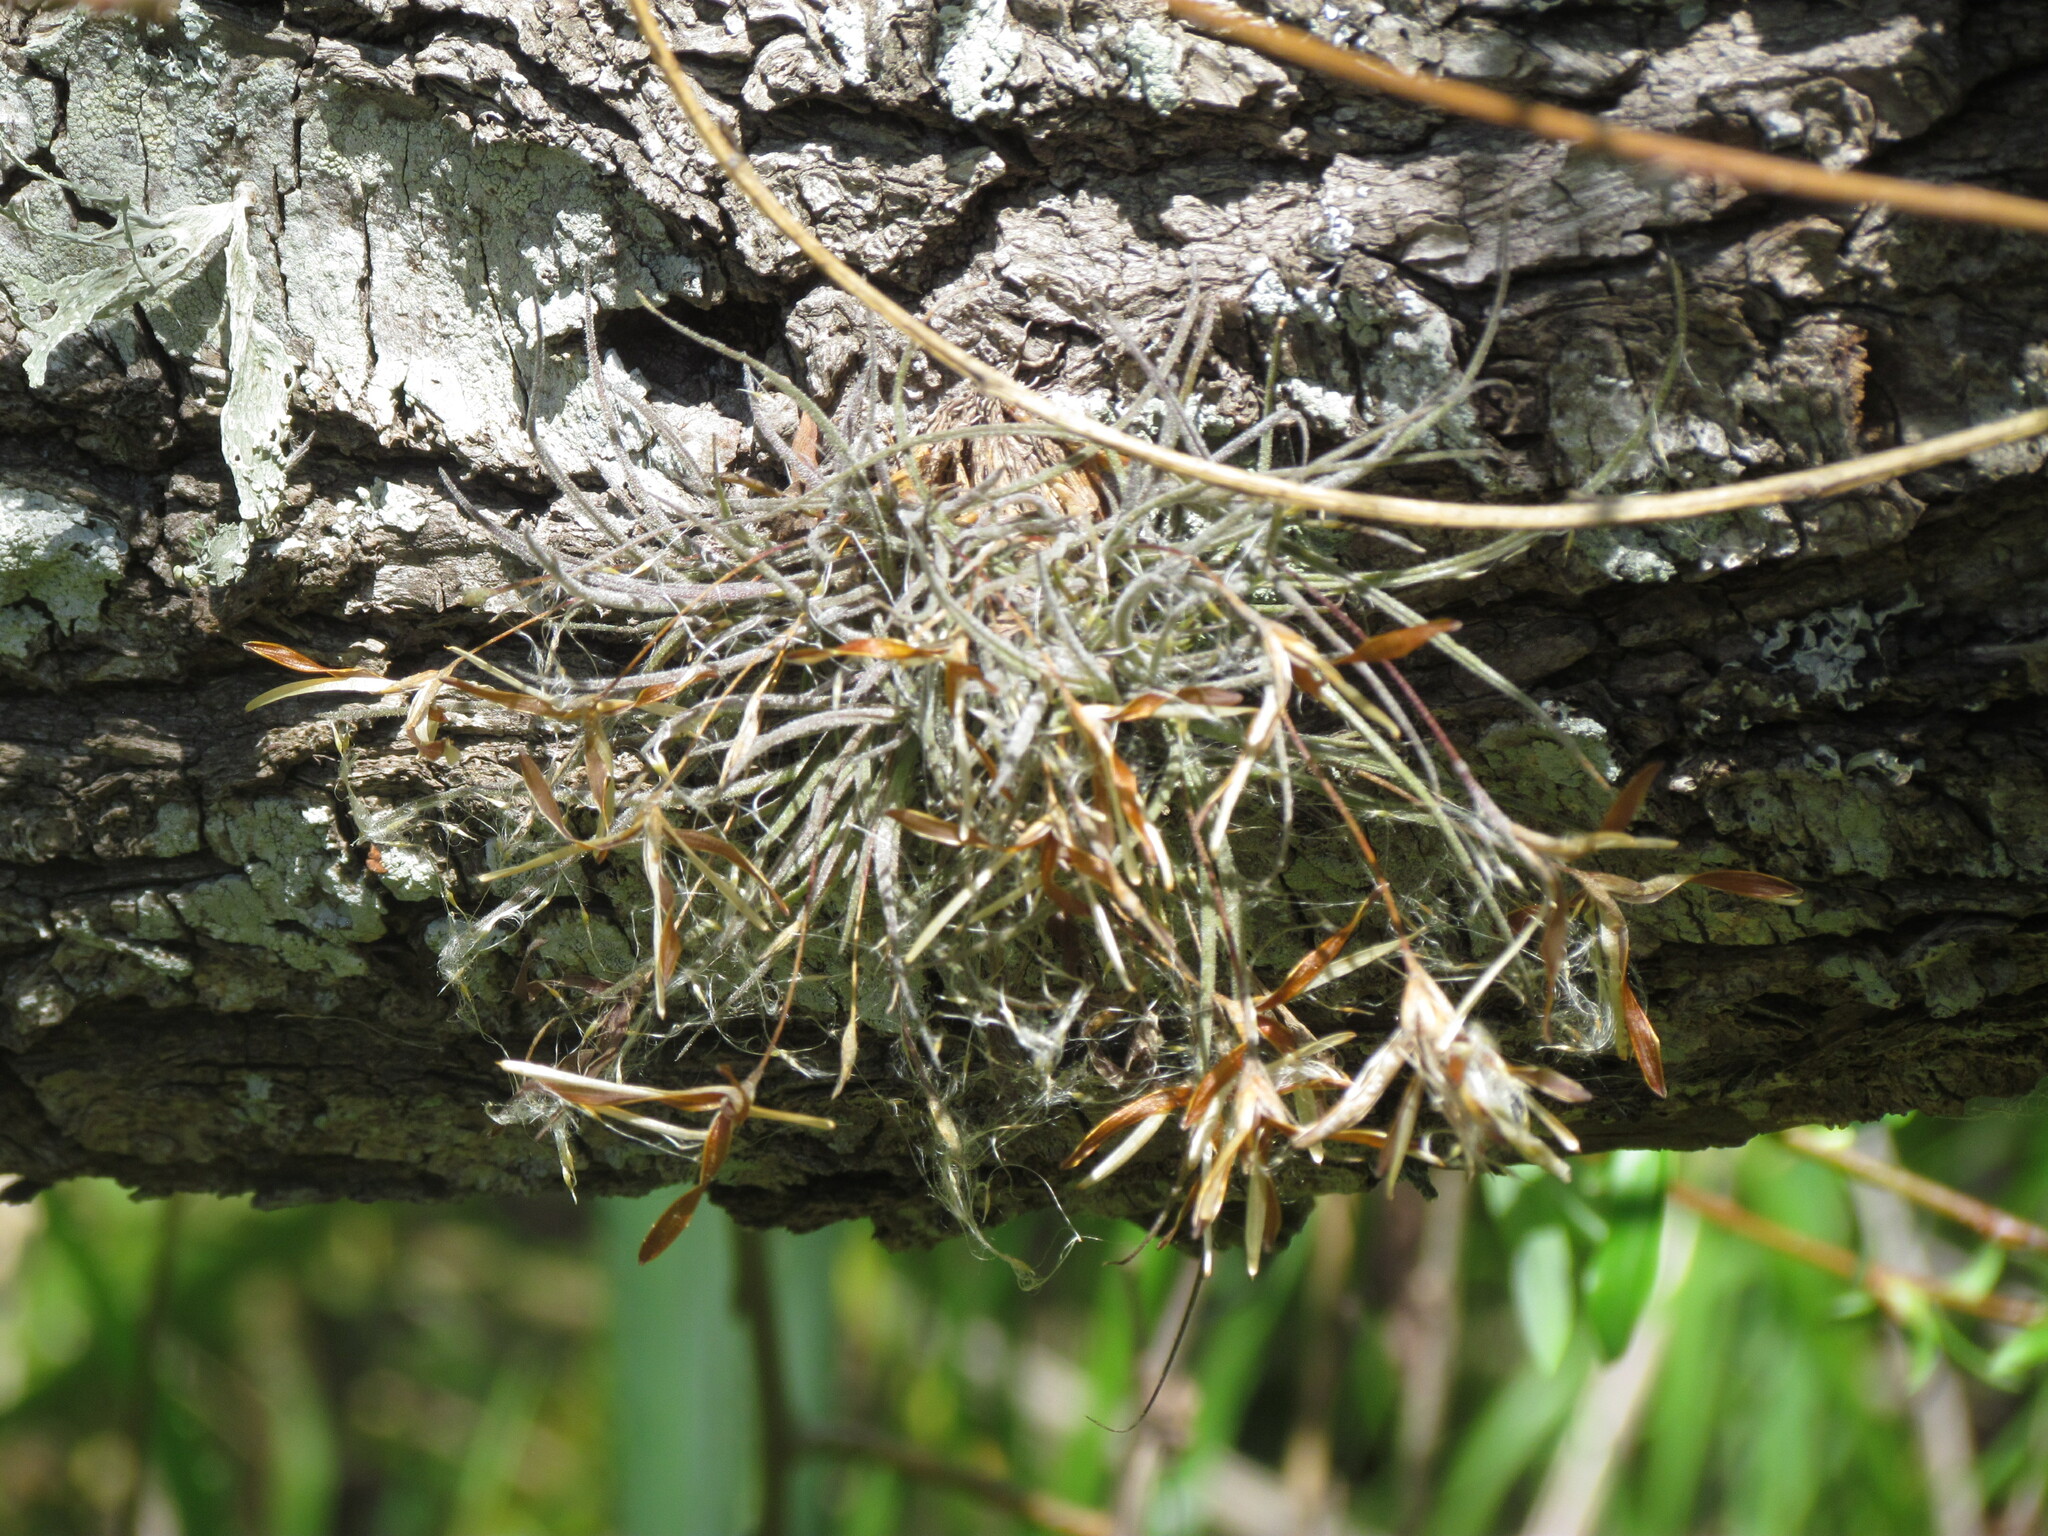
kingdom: Plantae
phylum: Tracheophyta
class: Liliopsida
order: Poales
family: Bromeliaceae
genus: Tillandsia
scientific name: Tillandsia recurvata
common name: Small ballmoss
